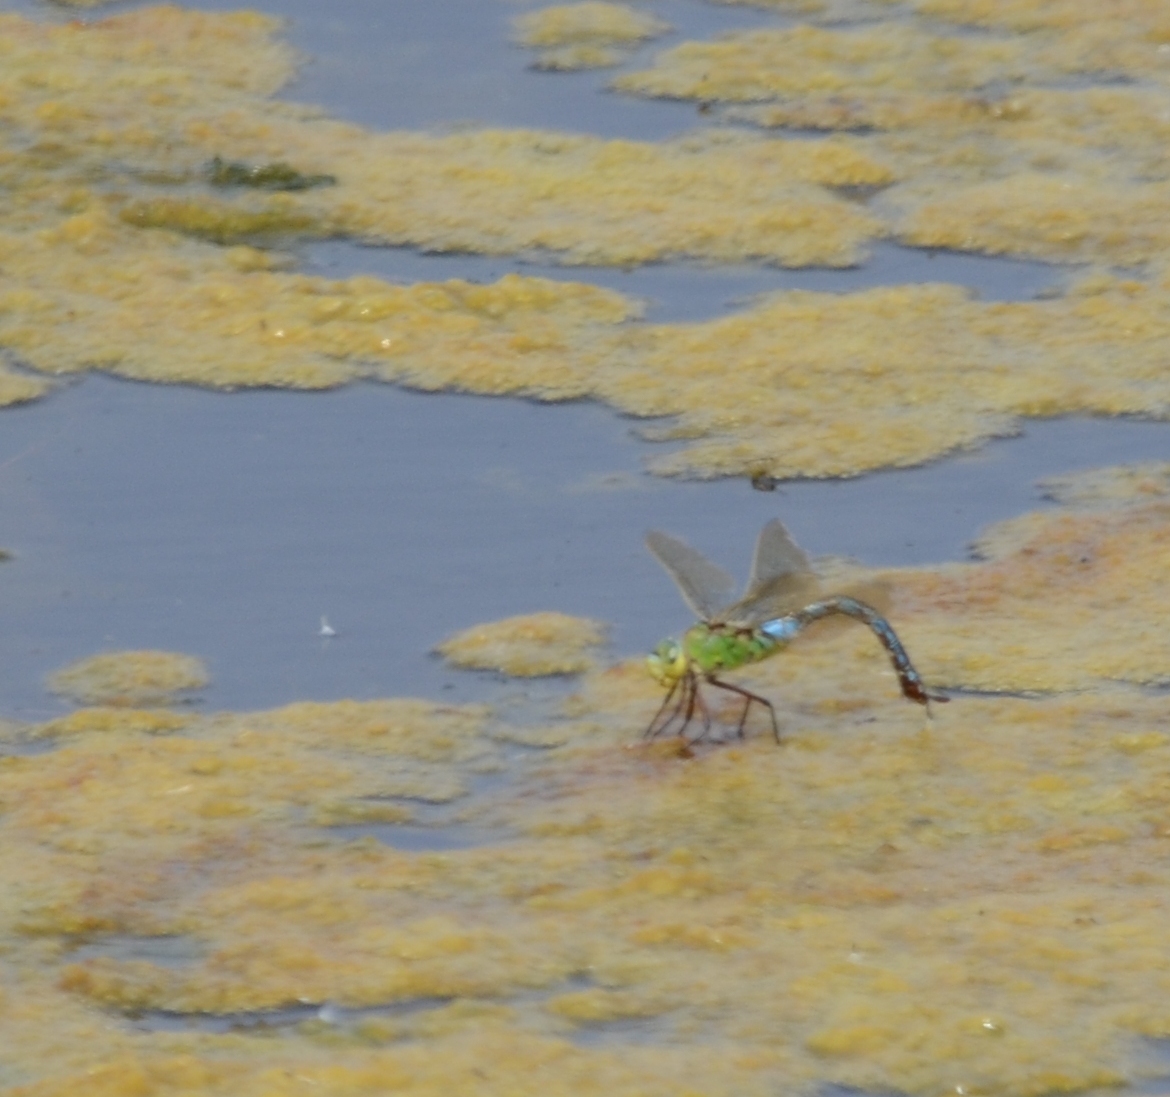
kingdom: Animalia
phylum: Arthropoda
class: Insecta
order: Odonata
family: Aeshnidae
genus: Anax
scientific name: Anax imperator
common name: Emperor dragonfly
